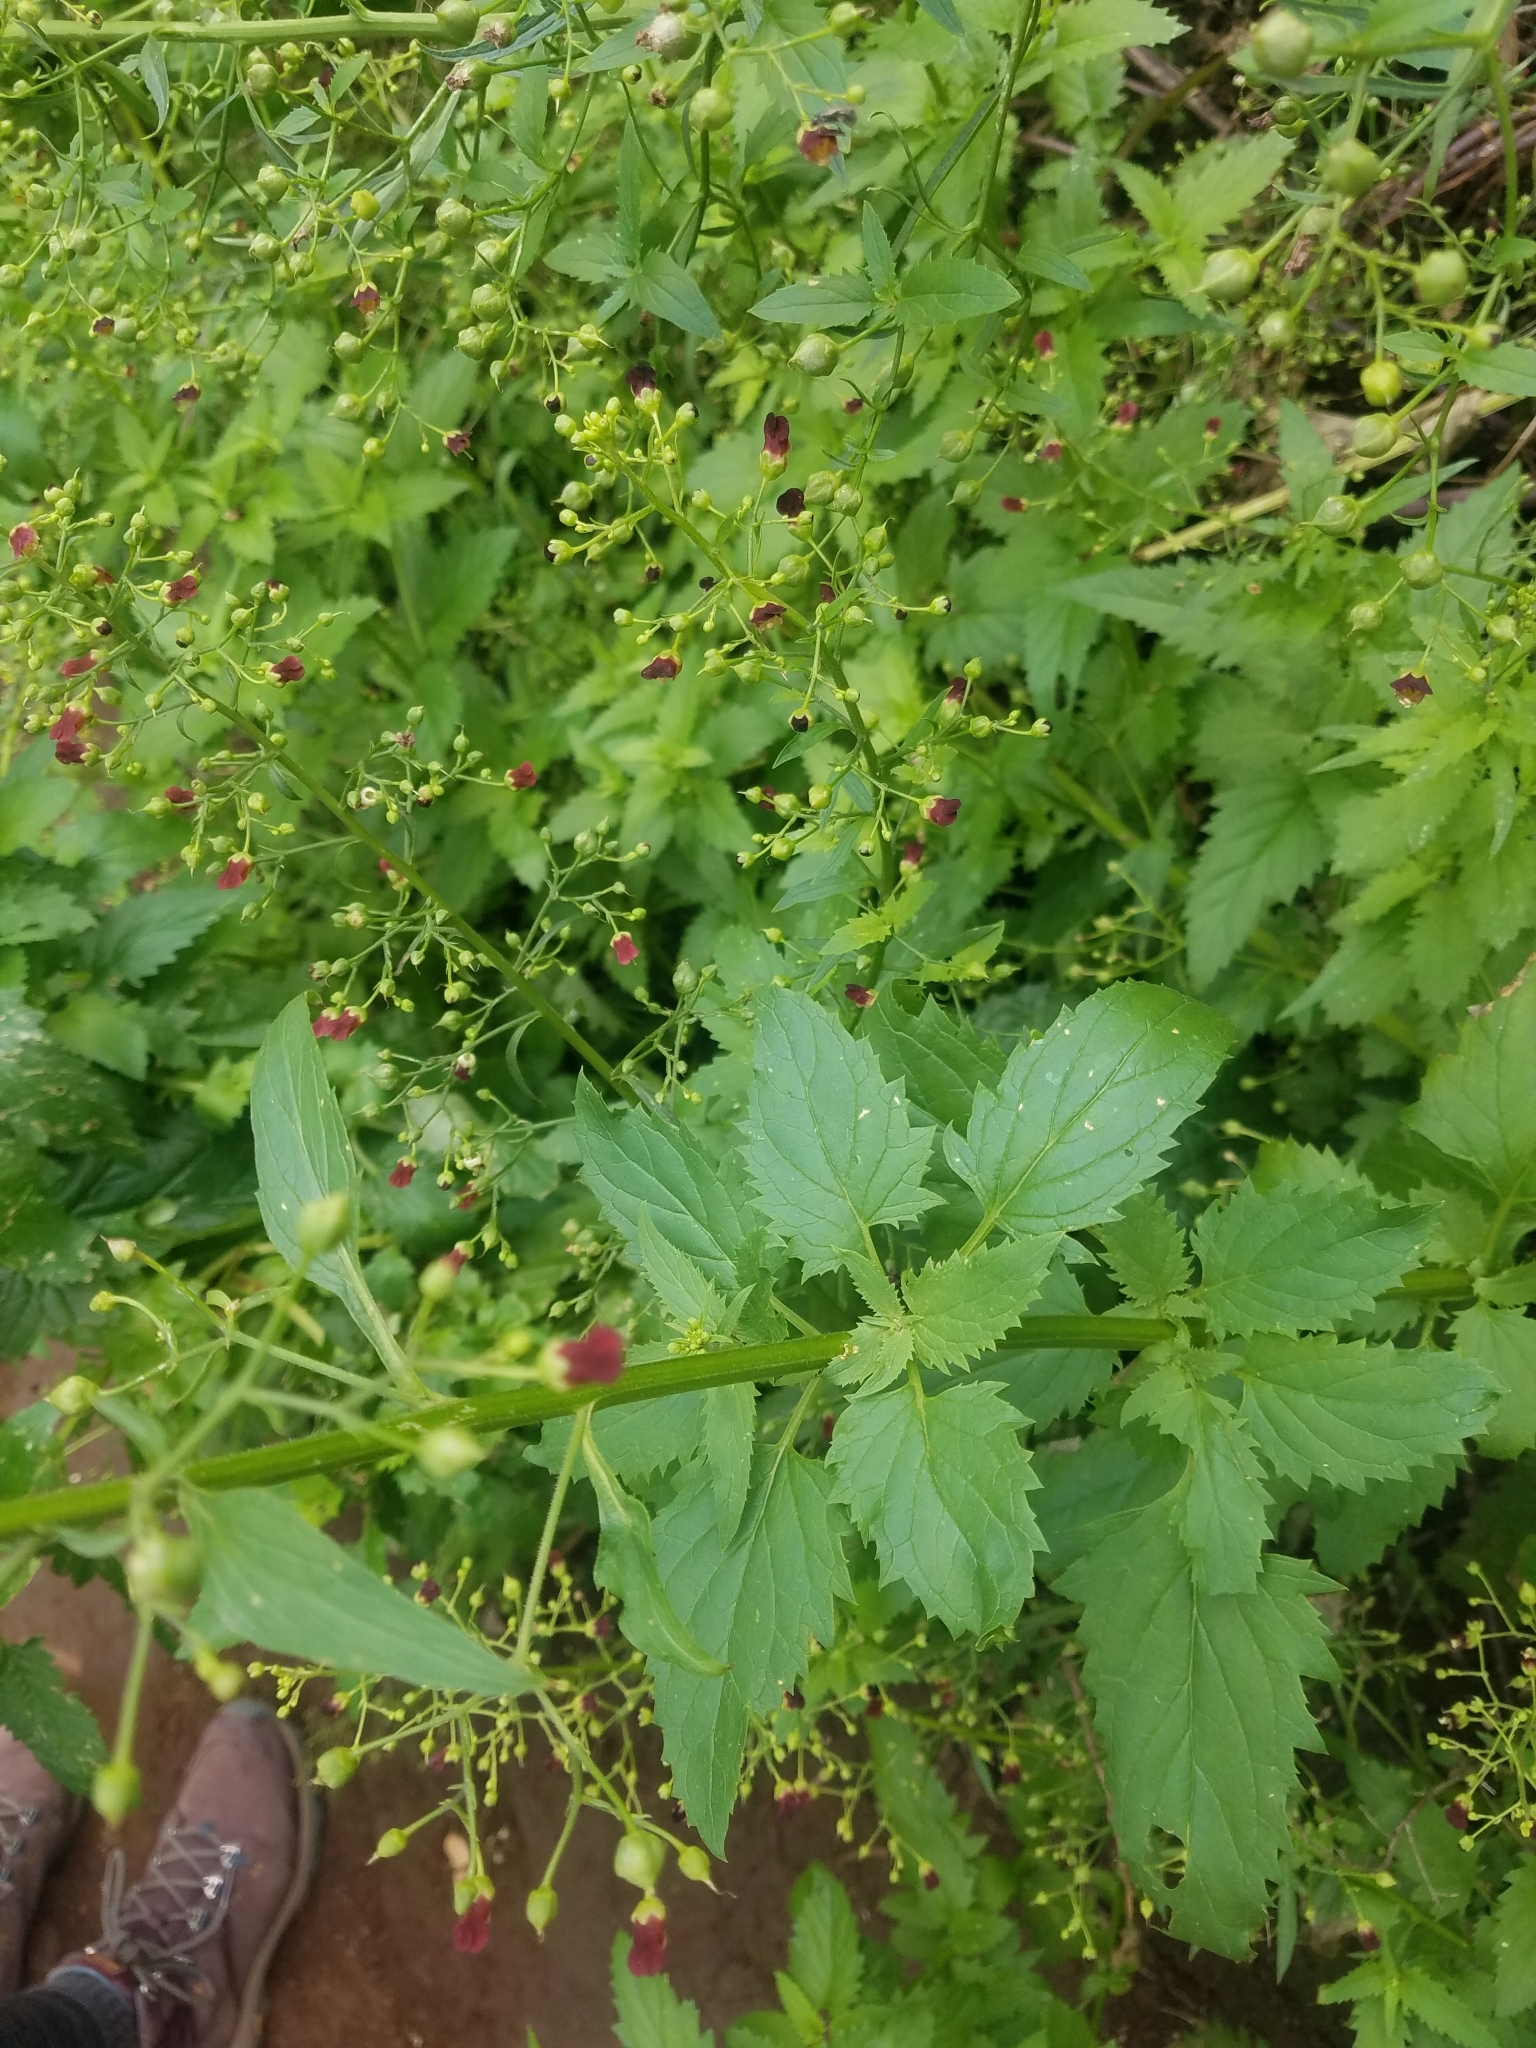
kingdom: Plantae
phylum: Tracheophyta
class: Magnoliopsida
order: Lamiales
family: Scrophulariaceae
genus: Scrophularia
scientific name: Scrophularia californica
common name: California figwort
